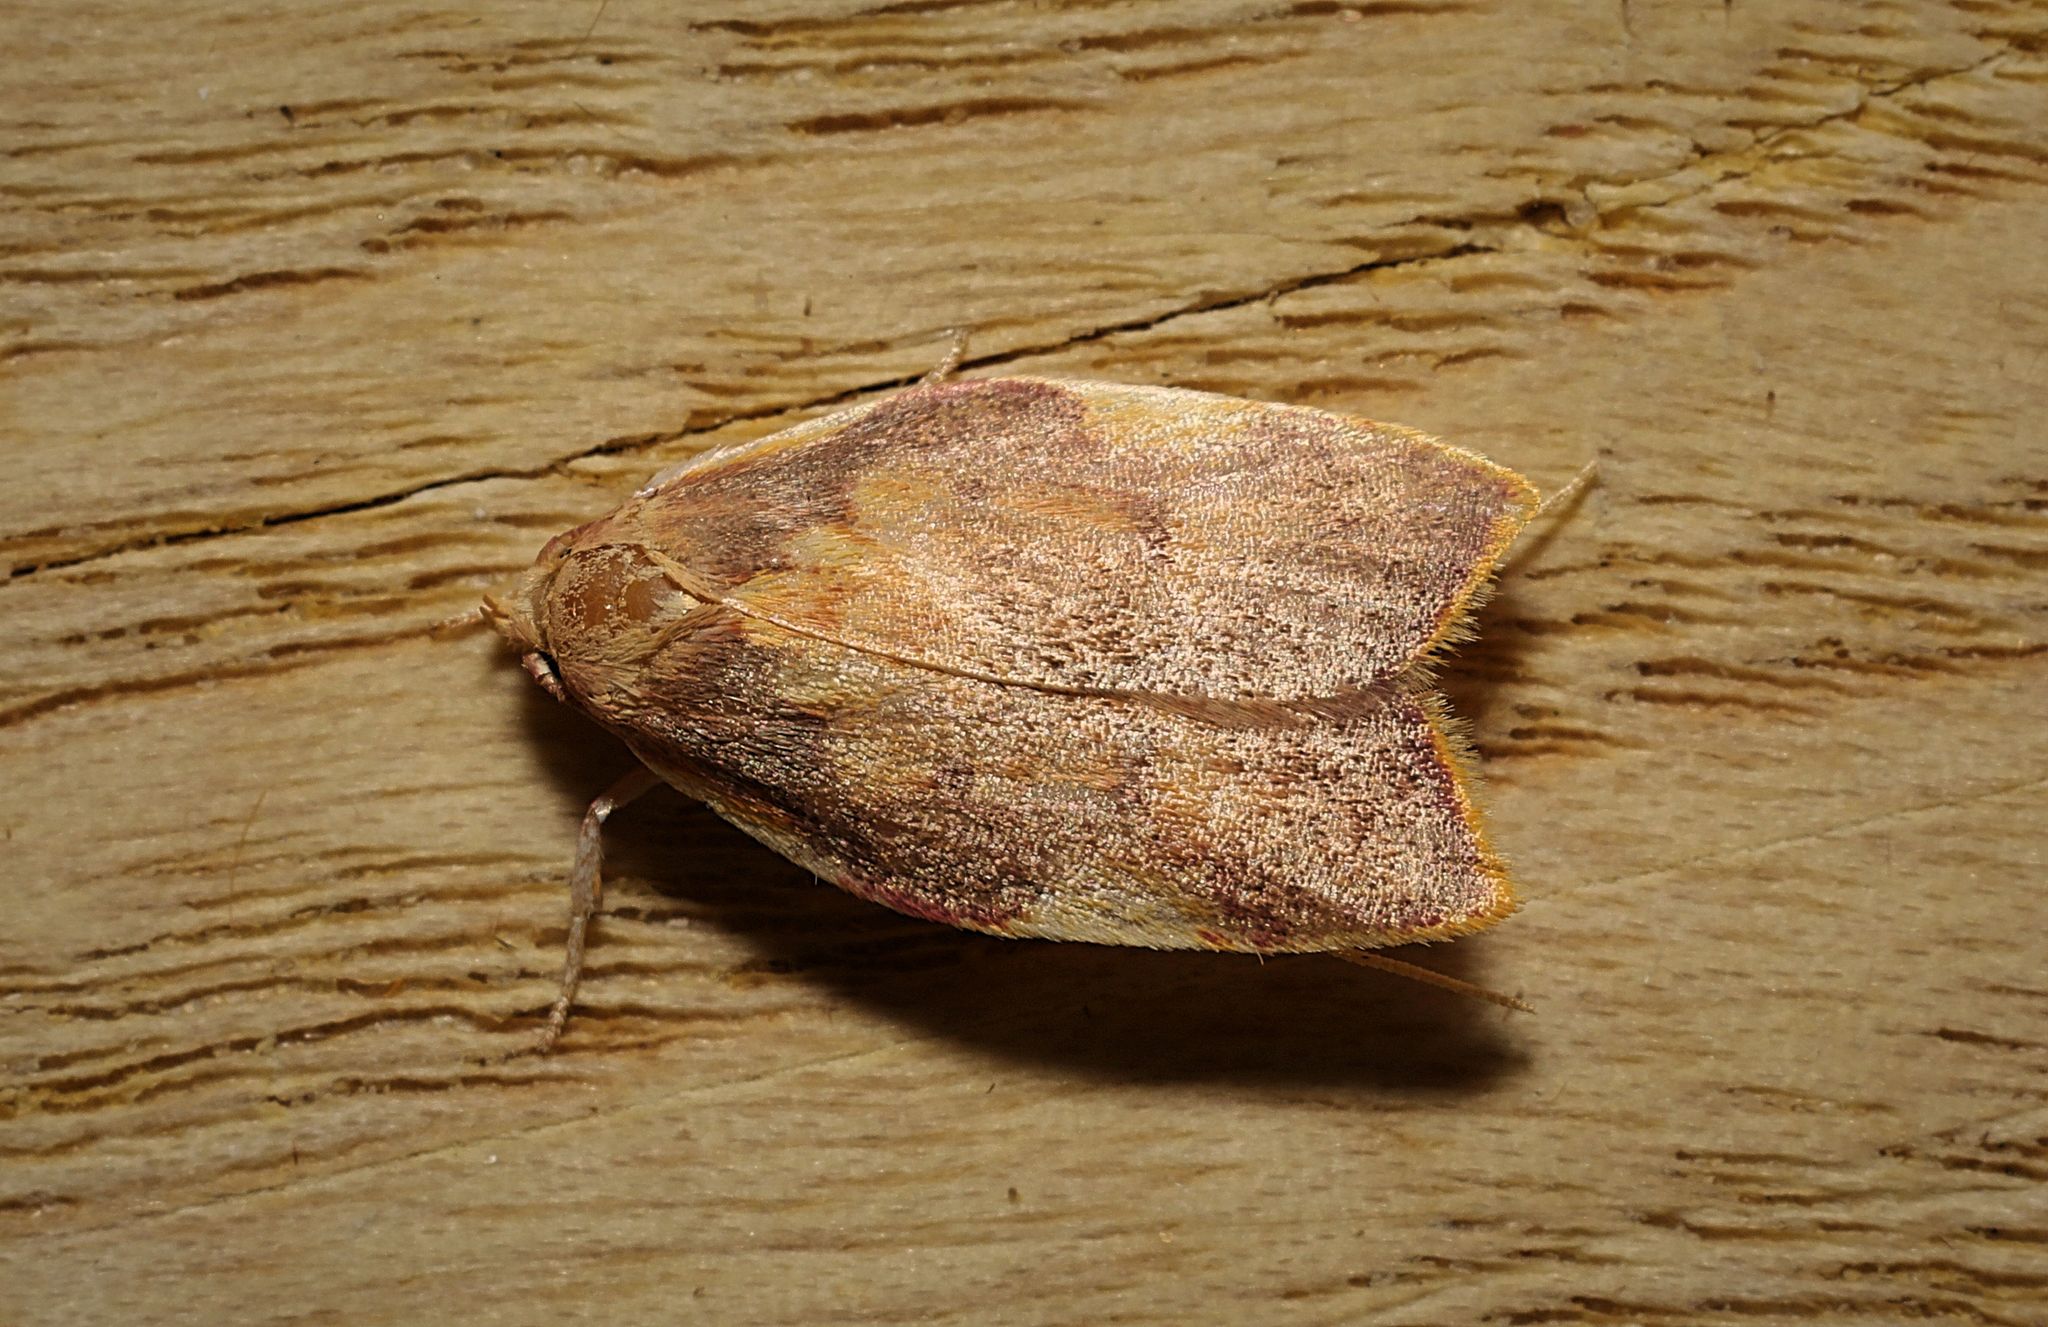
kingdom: Animalia
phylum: Arthropoda
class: Insecta
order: Lepidoptera
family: Peleopodidae
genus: Carcina
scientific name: Carcina quercana
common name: Moth
